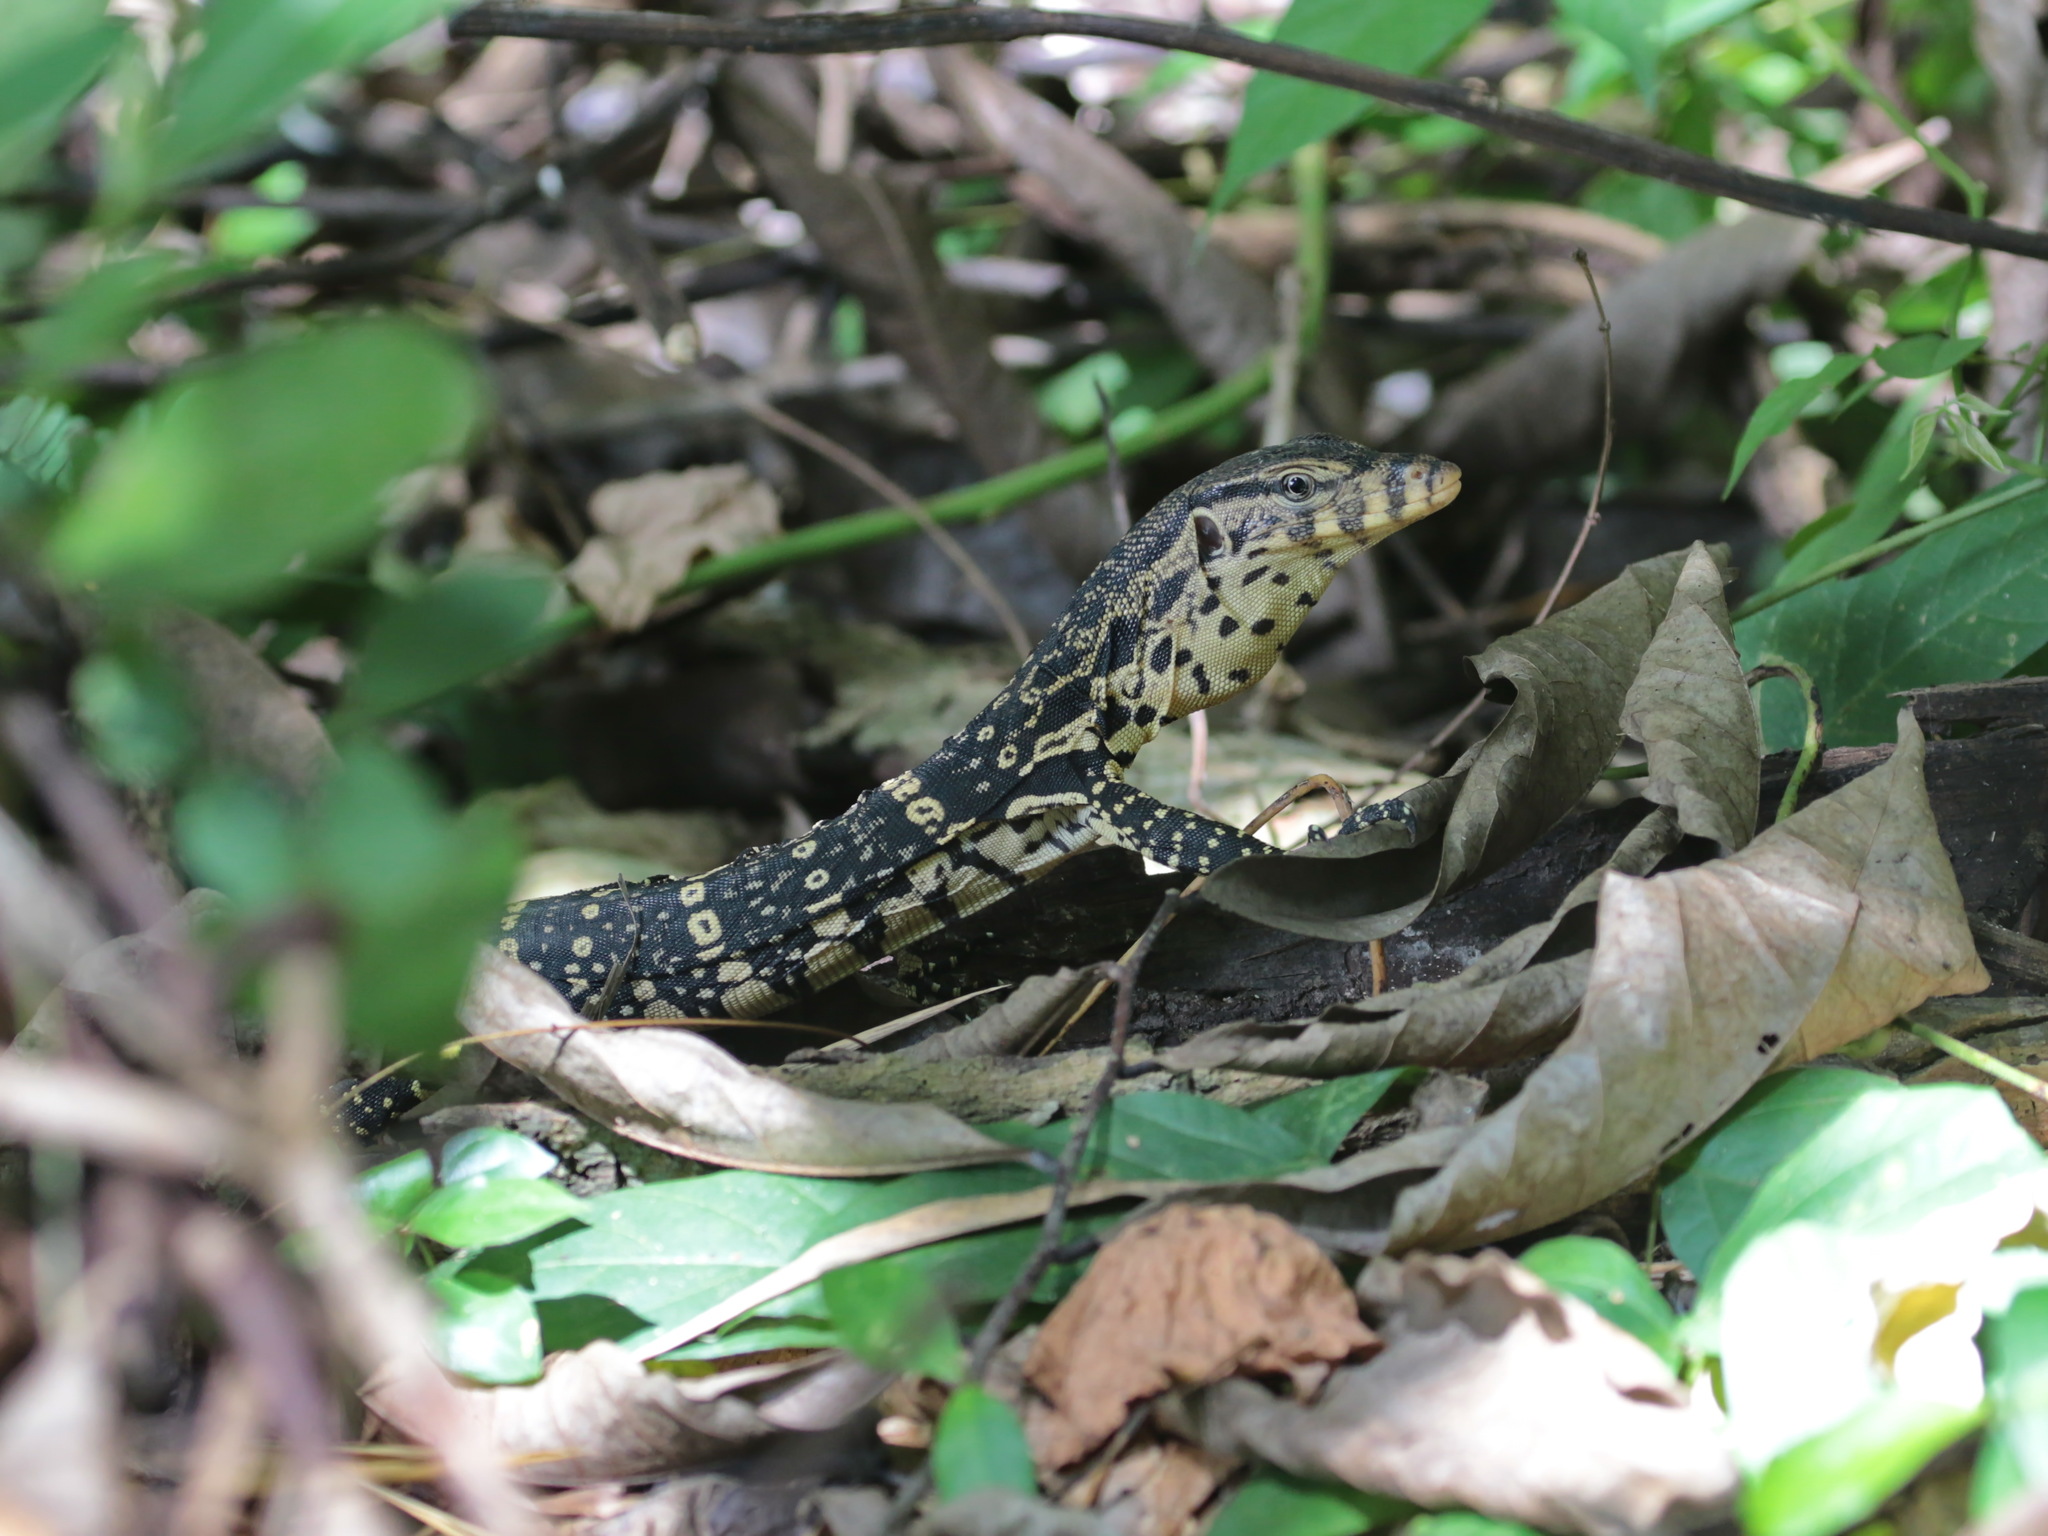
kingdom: Animalia
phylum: Chordata
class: Squamata
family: Varanidae
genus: Varanus
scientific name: Varanus salvator
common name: Common water monitor
